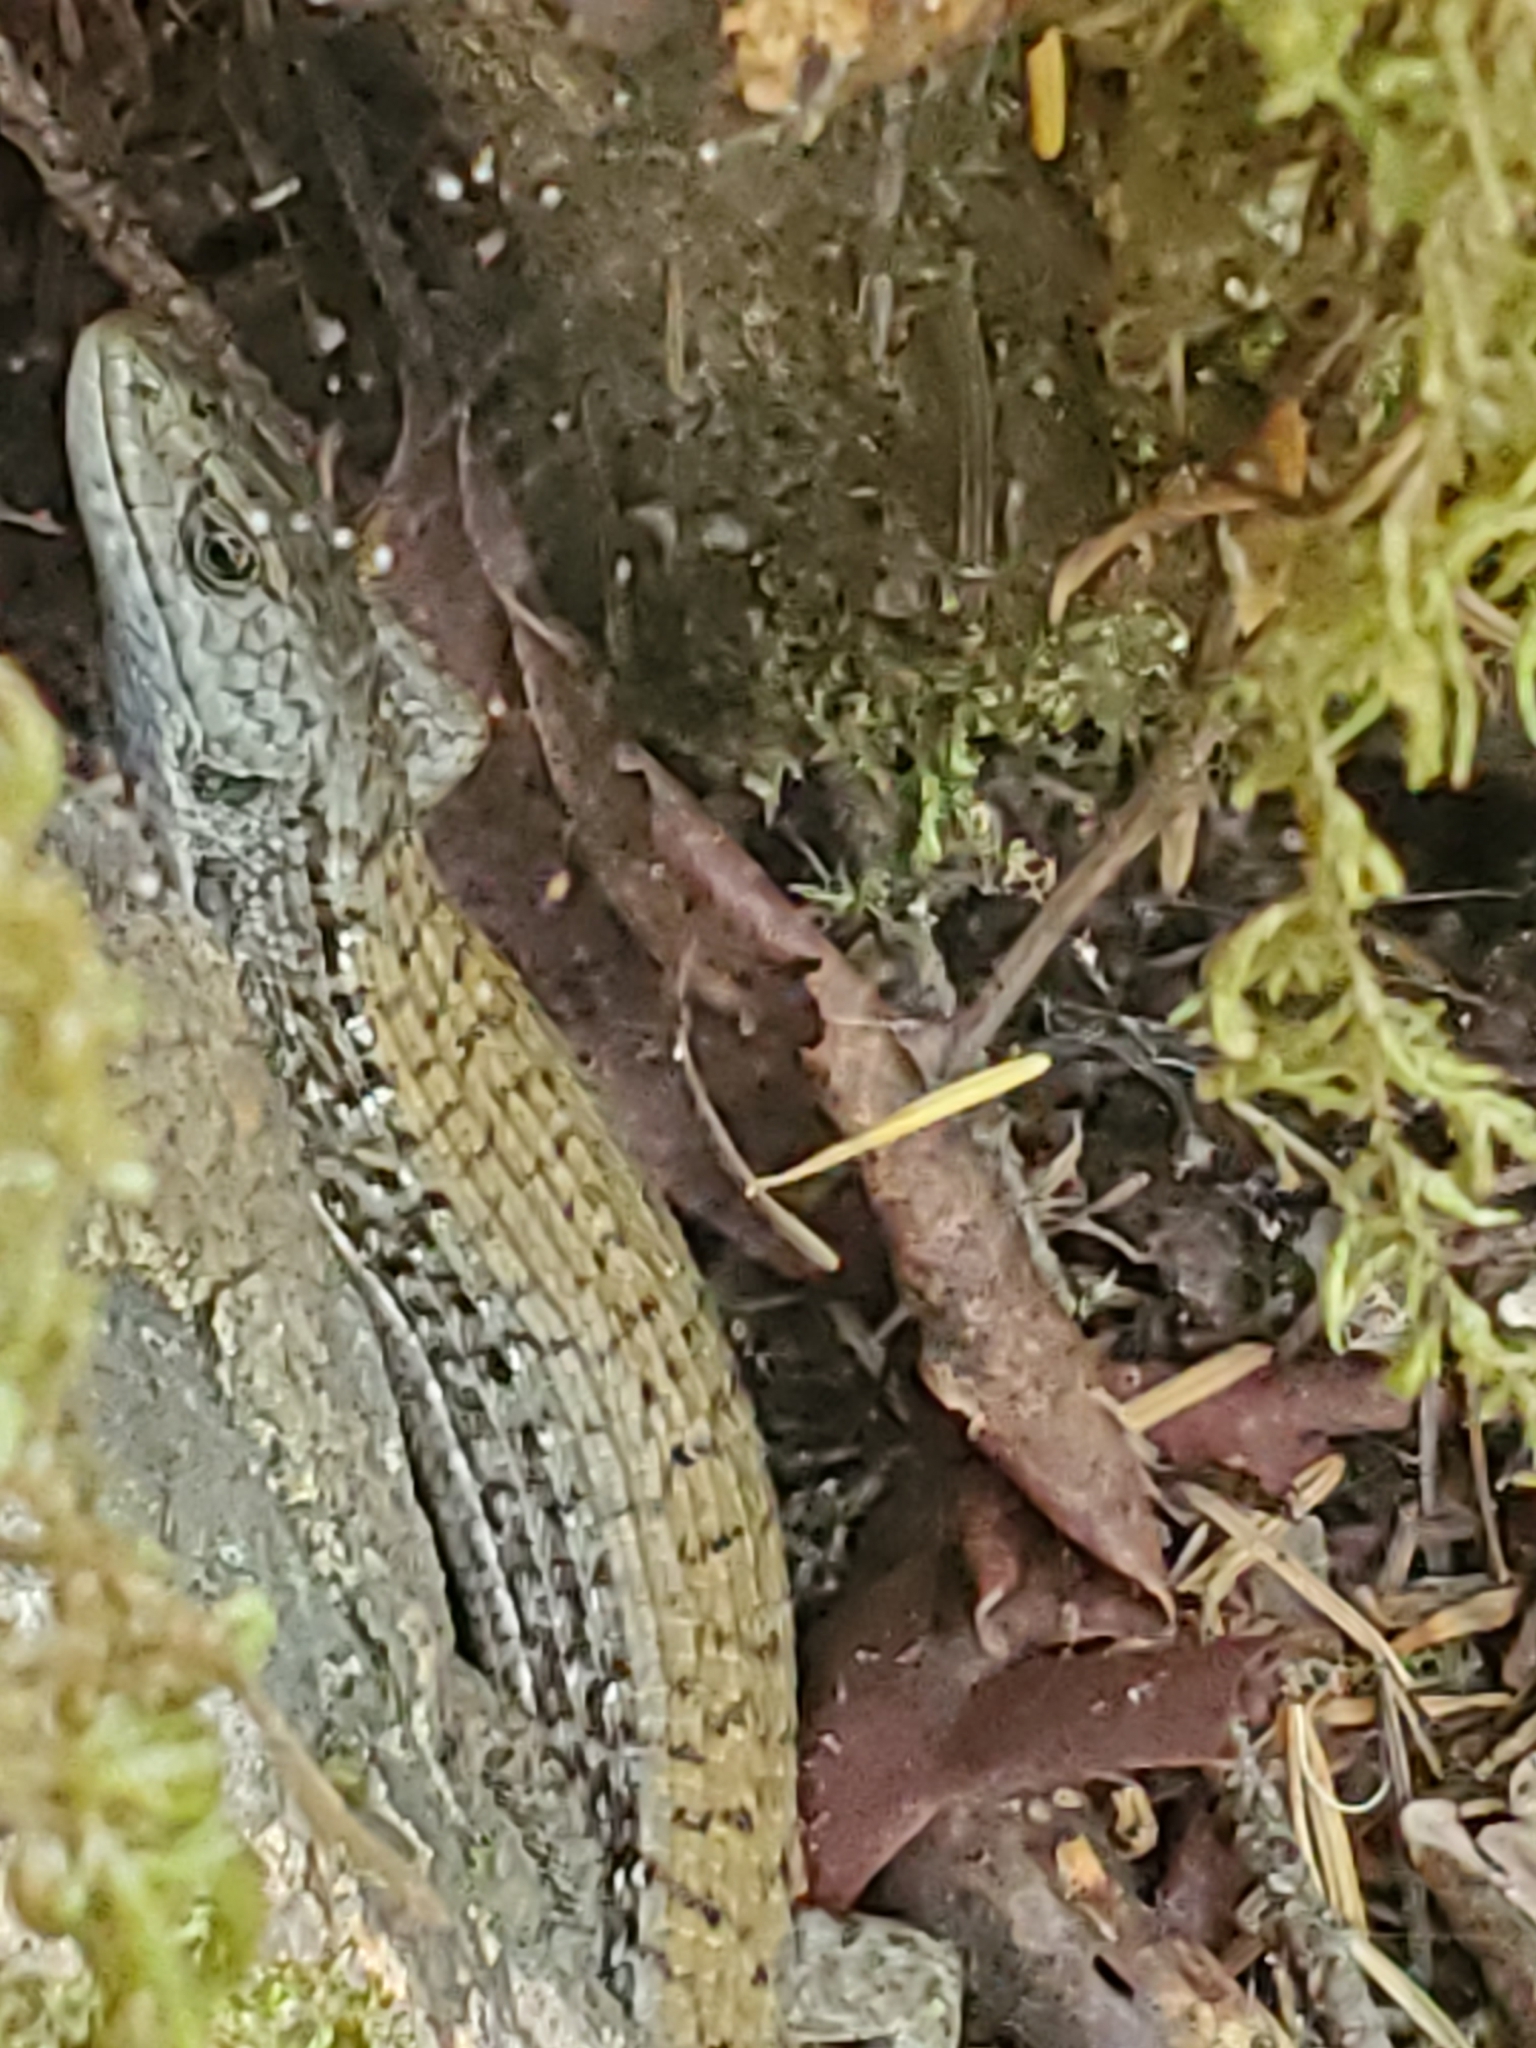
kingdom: Animalia
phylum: Chordata
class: Squamata
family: Anguidae
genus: Elgaria
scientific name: Elgaria coerulea
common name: Northern alligator lizard
